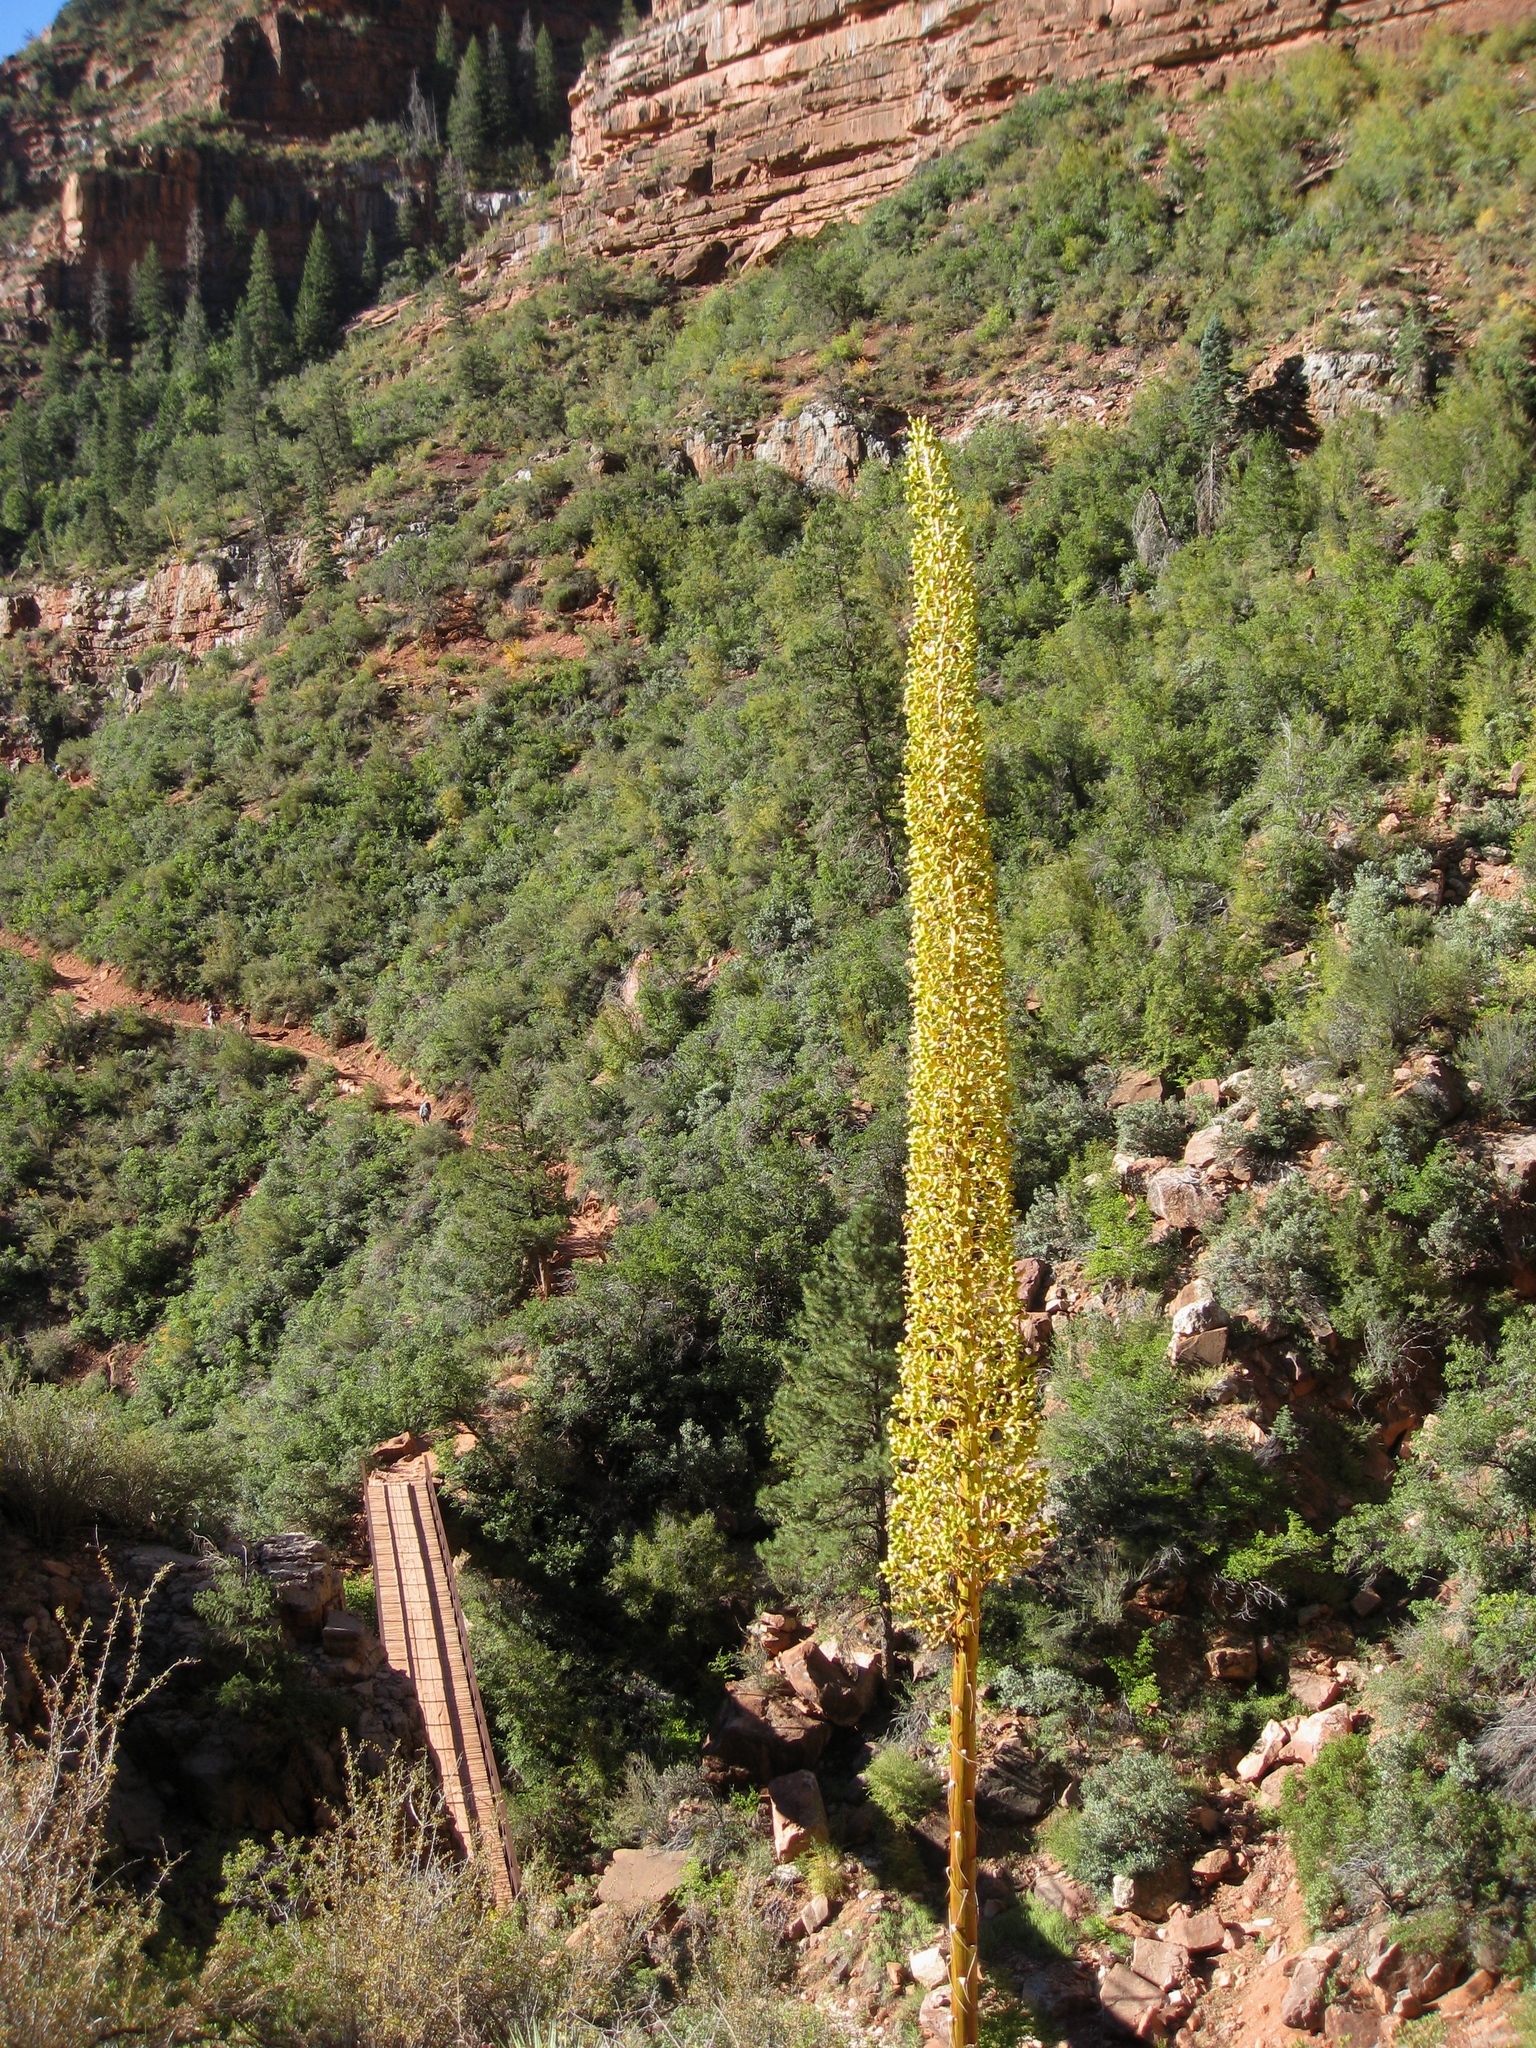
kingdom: Plantae
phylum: Tracheophyta
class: Liliopsida
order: Asparagales
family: Asparagaceae
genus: Agave
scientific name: Agave utahensis
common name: Utah agave
